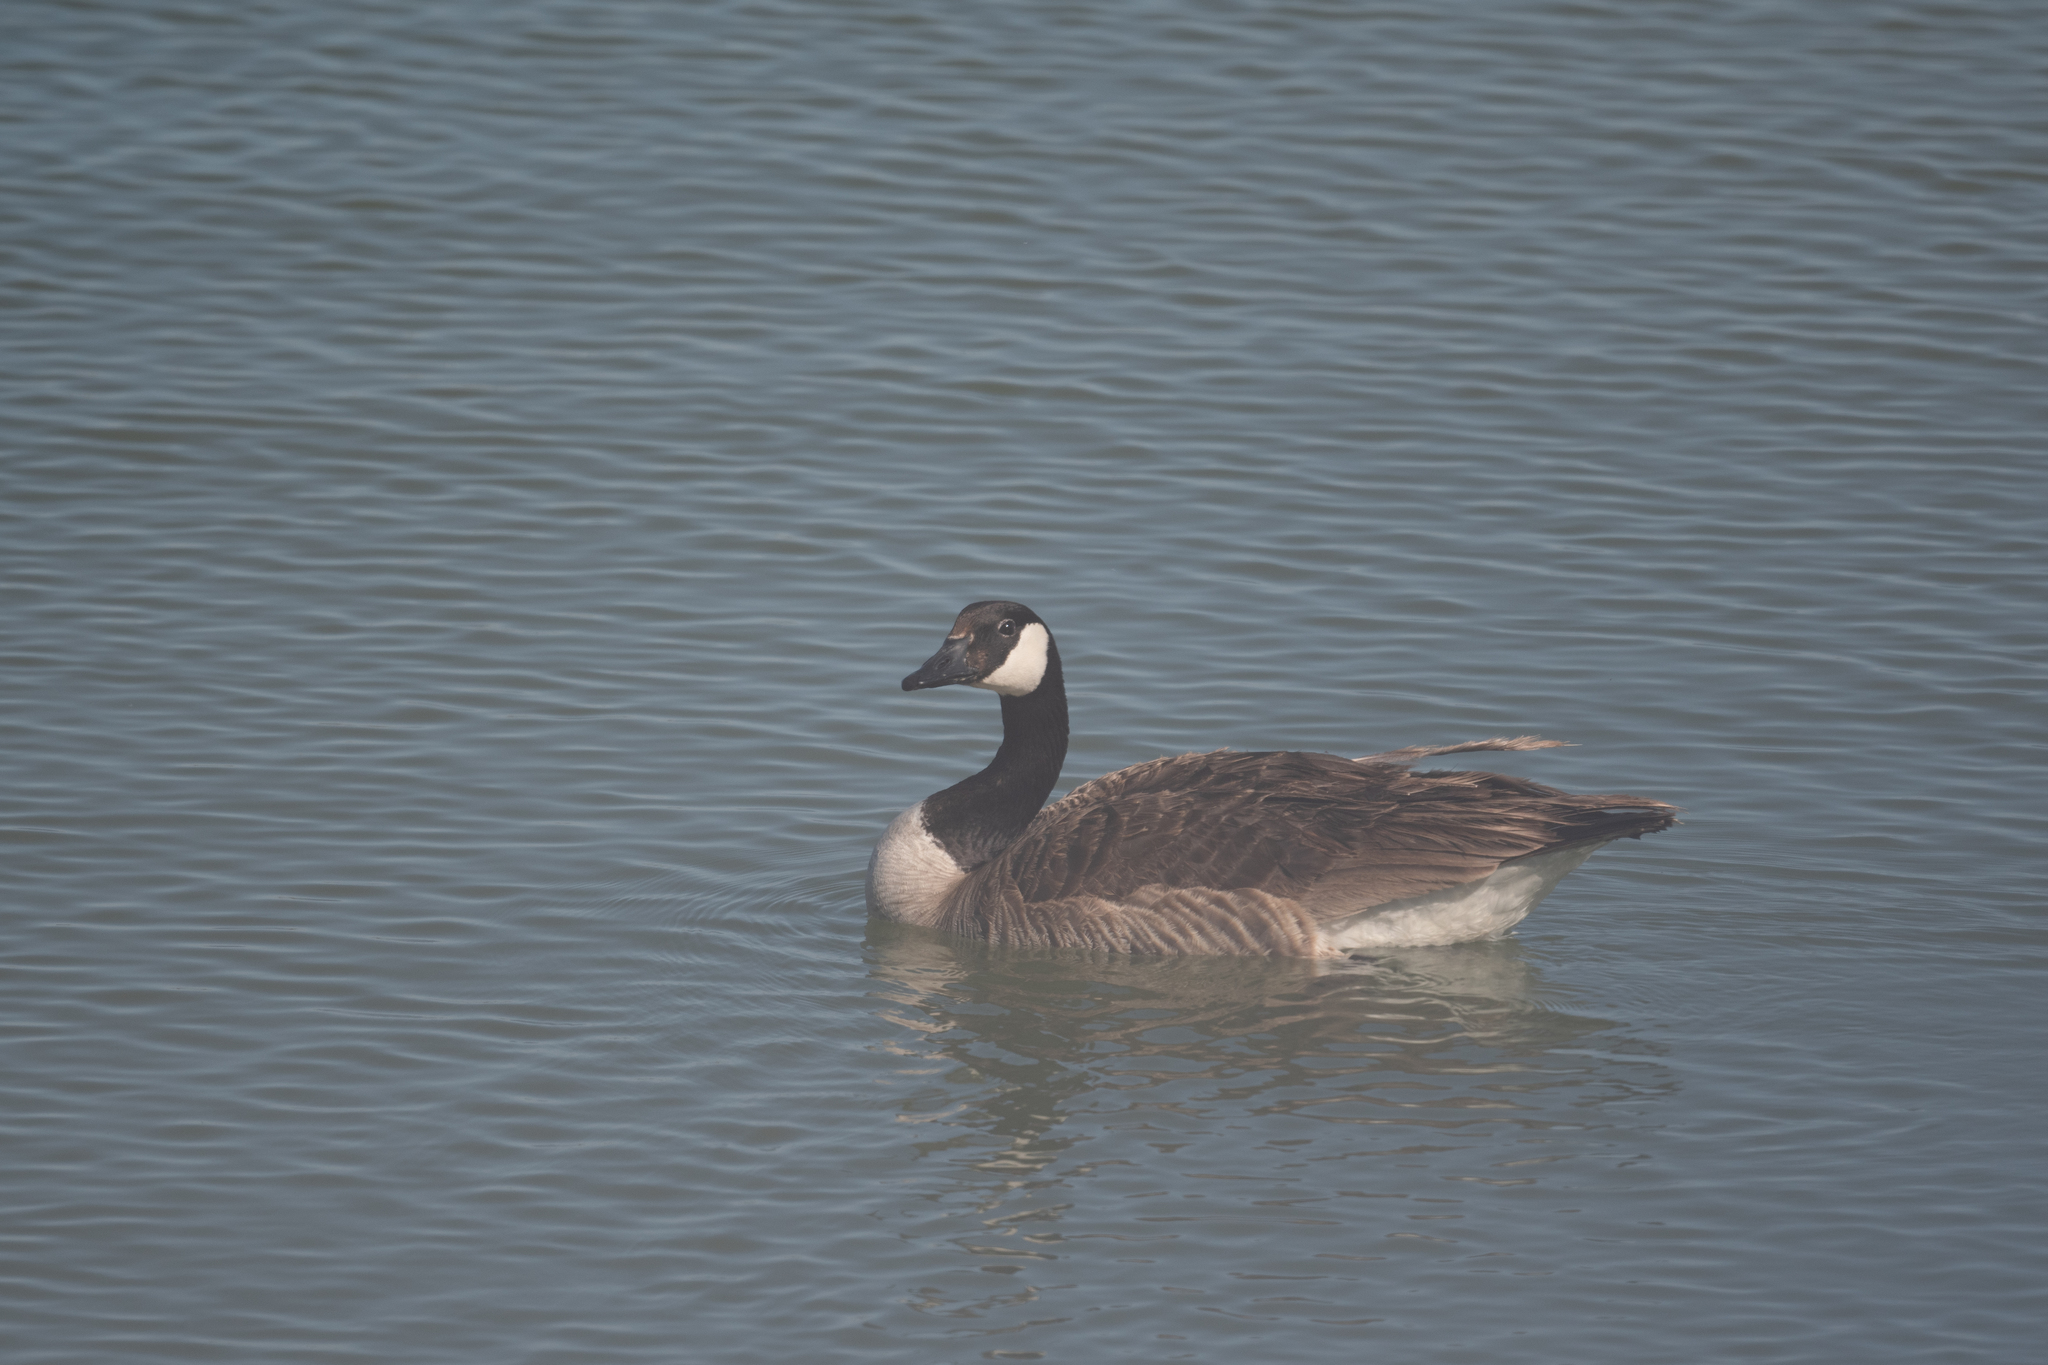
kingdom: Animalia
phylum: Chordata
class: Aves
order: Anseriformes
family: Anatidae
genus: Branta
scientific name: Branta canadensis
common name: Canada goose
